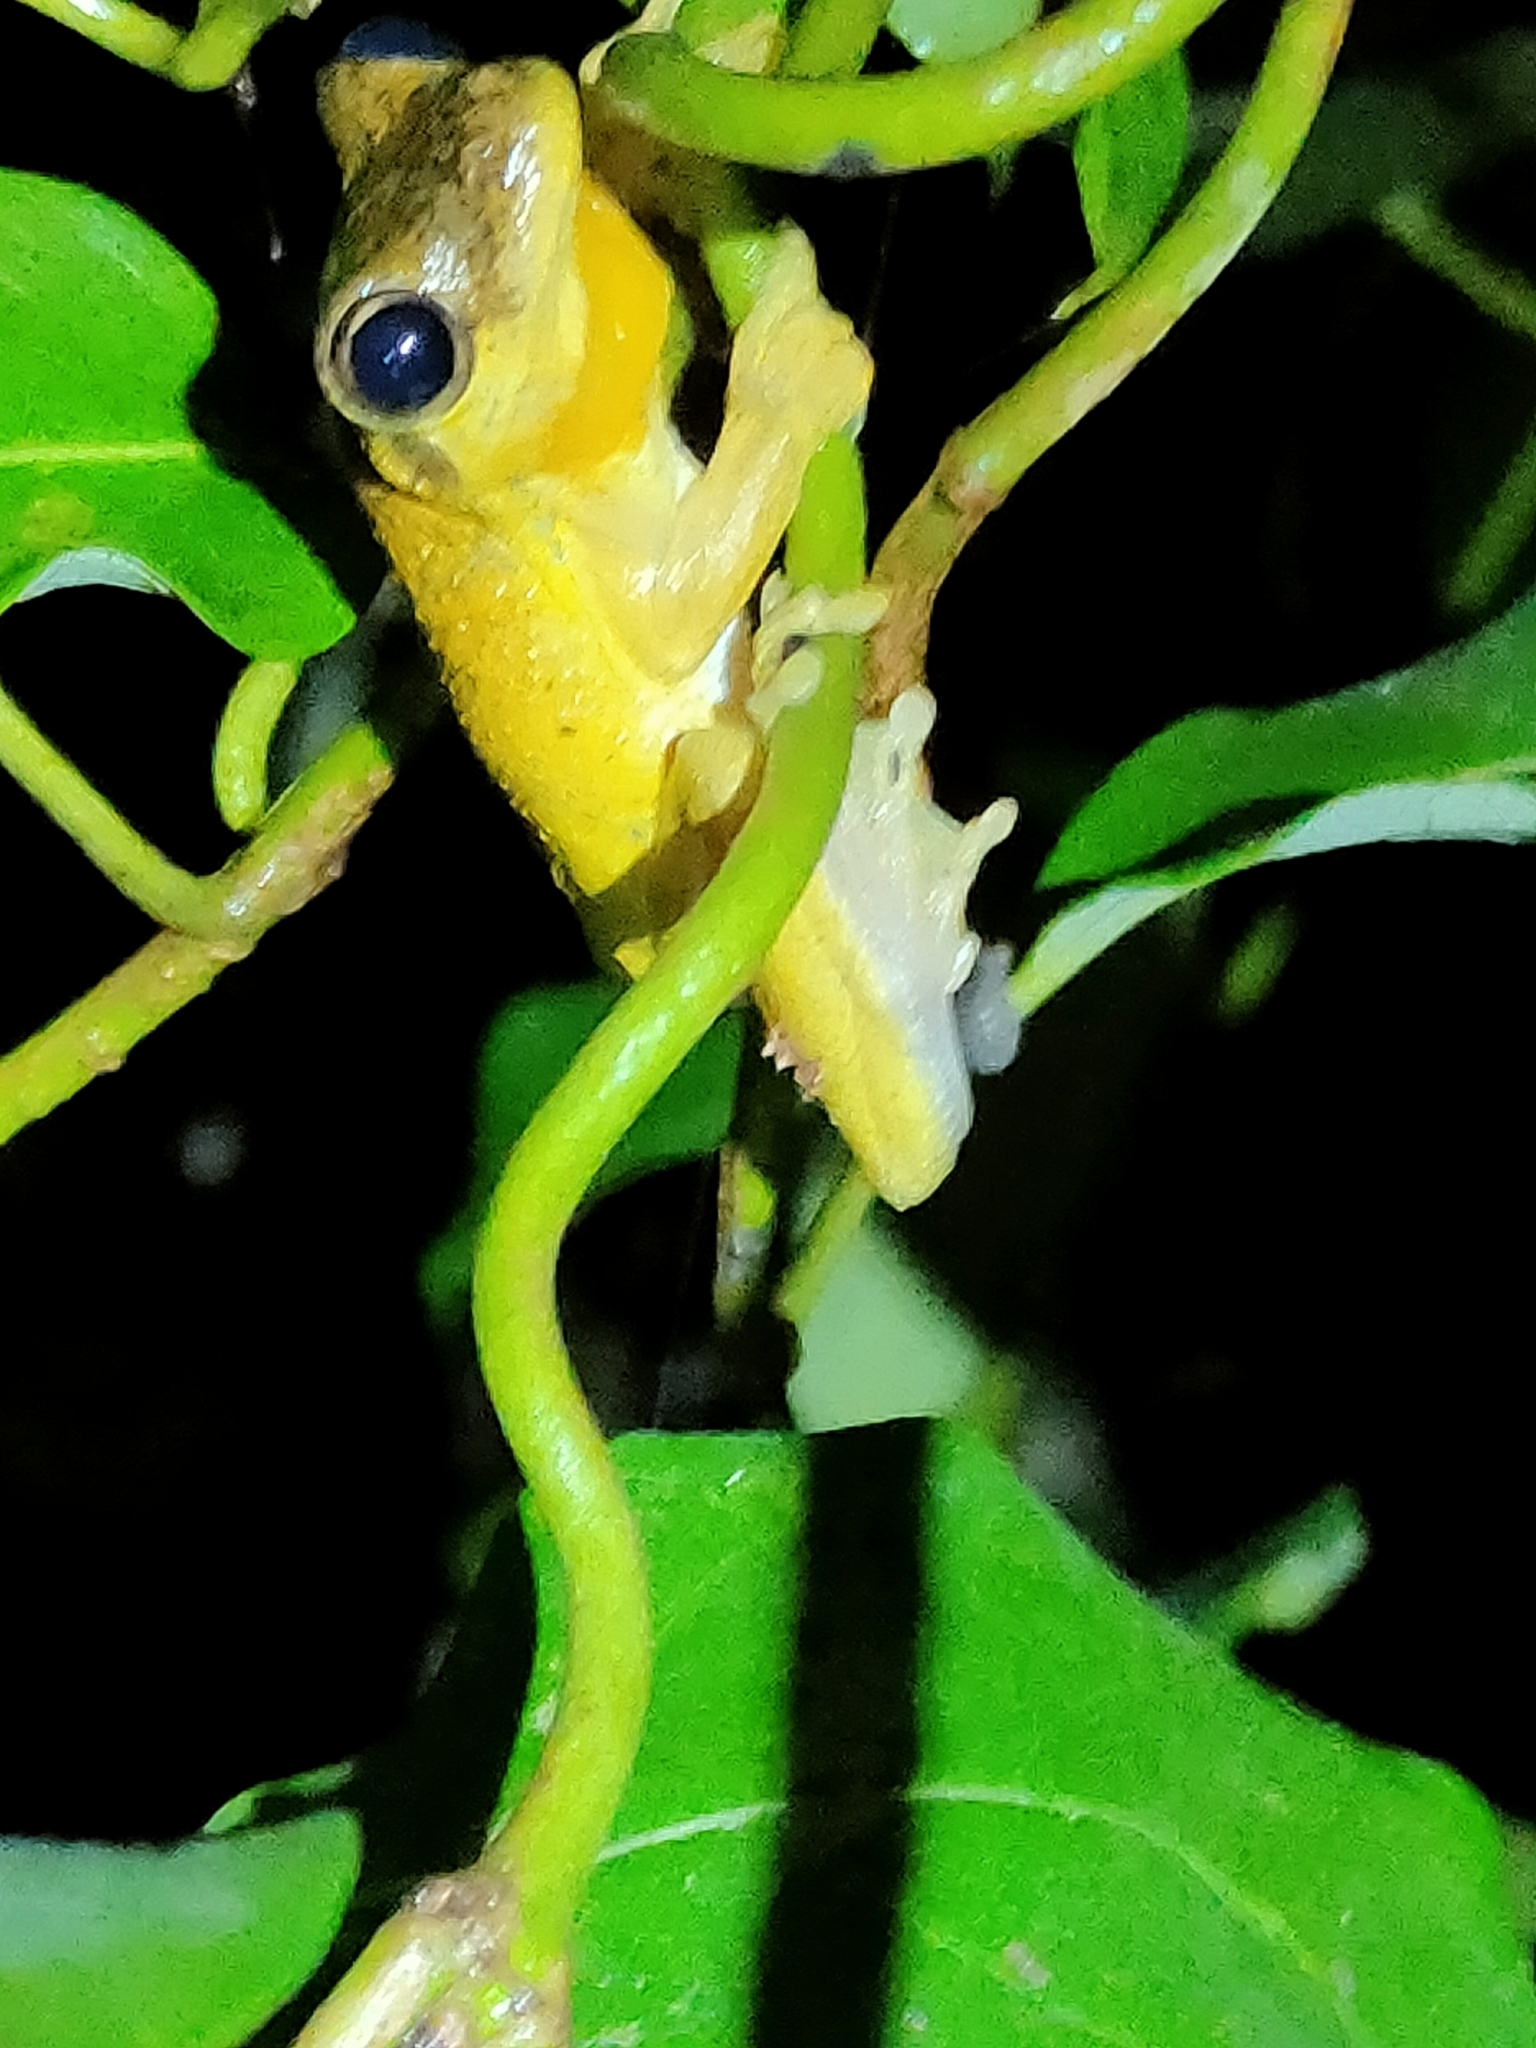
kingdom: Animalia
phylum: Chordata
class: Amphibia
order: Anura
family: Pelodryadidae
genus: Litoria
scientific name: Litoria tyleri
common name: Laughing tree frog
